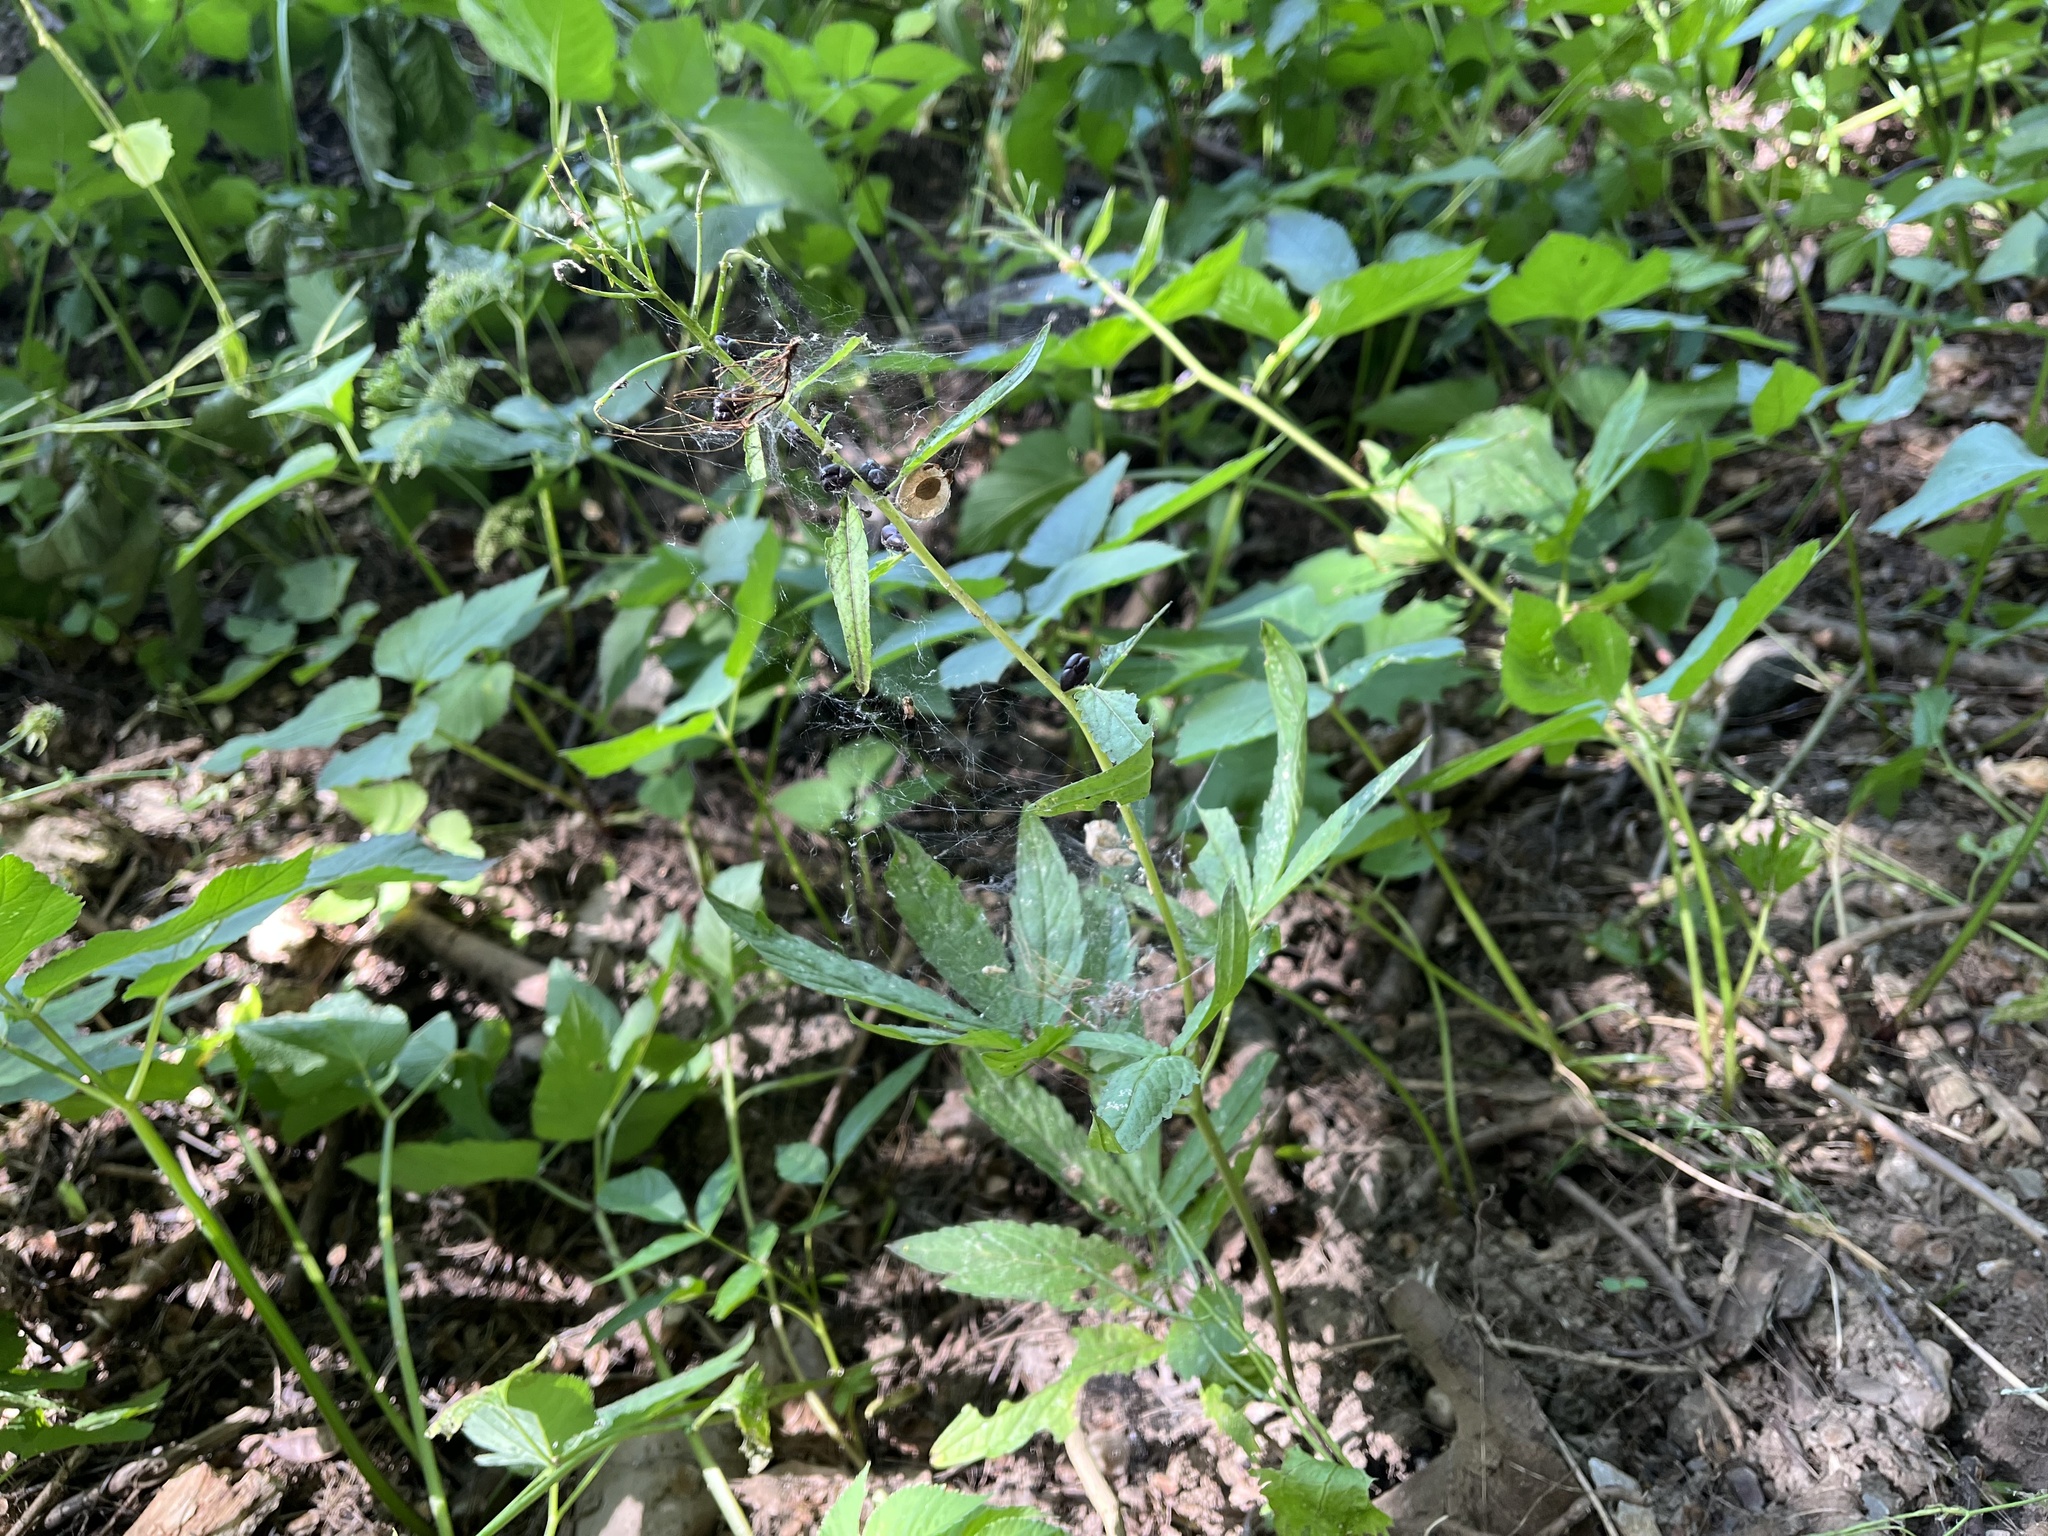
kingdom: Plantae
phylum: Tracheophyta
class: Magnoliopsida
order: Brassicales
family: Brassicaceae
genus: Cardamine
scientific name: Cardamine bulbifera
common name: Coralroot bittercress
